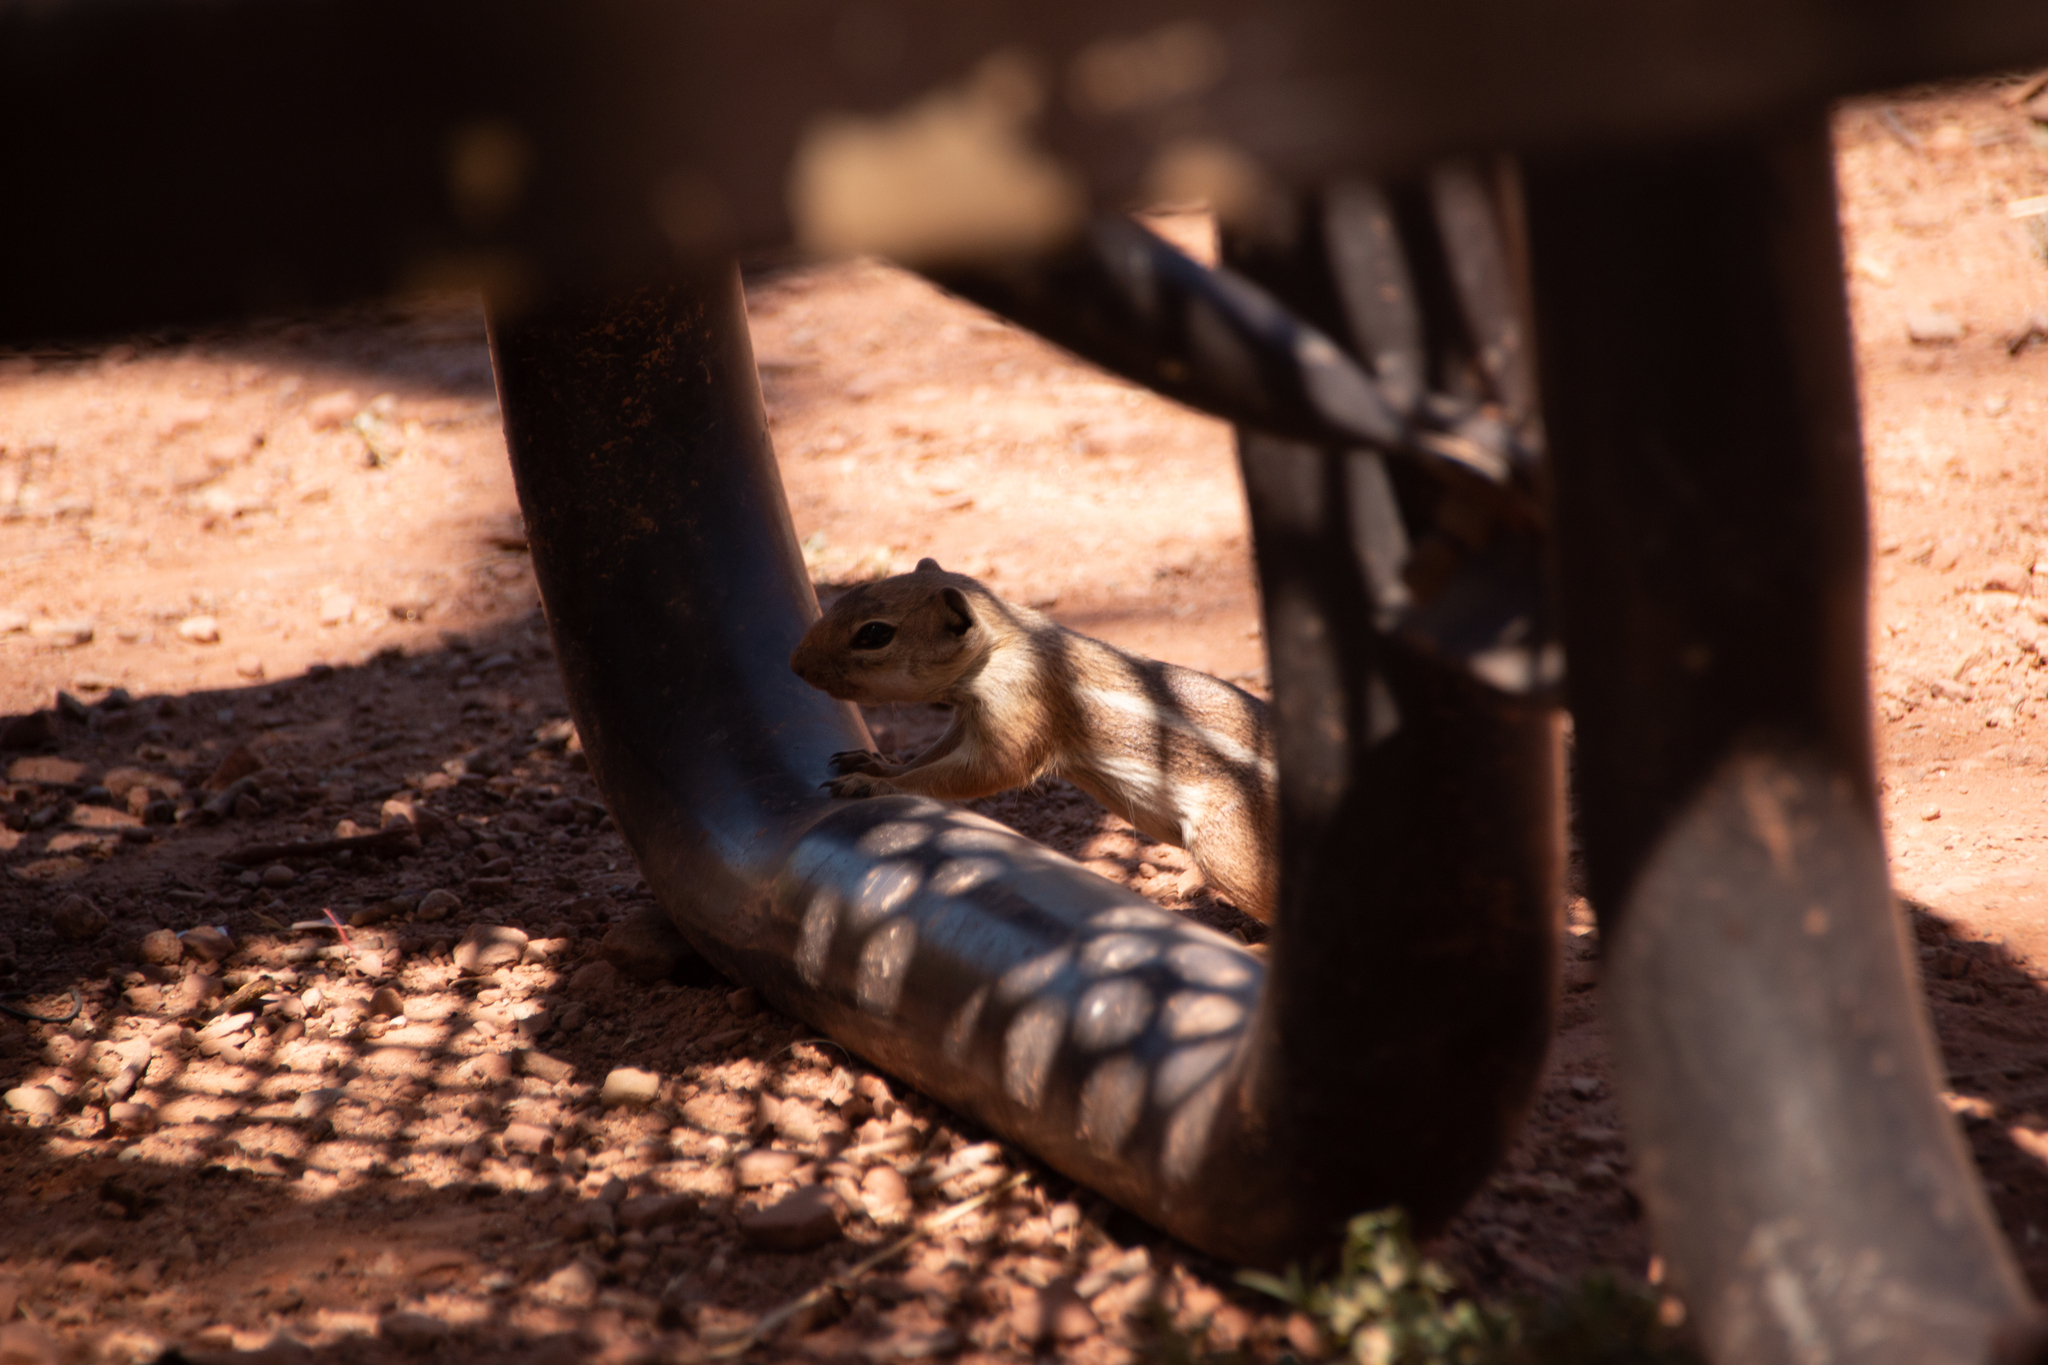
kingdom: Animalia
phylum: Chordata
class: Mammalia
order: Rodentia
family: Sciuridae
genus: Ammospermophilus
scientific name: Ammospermophilus leucurus
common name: White-tailed antelope squirrel
